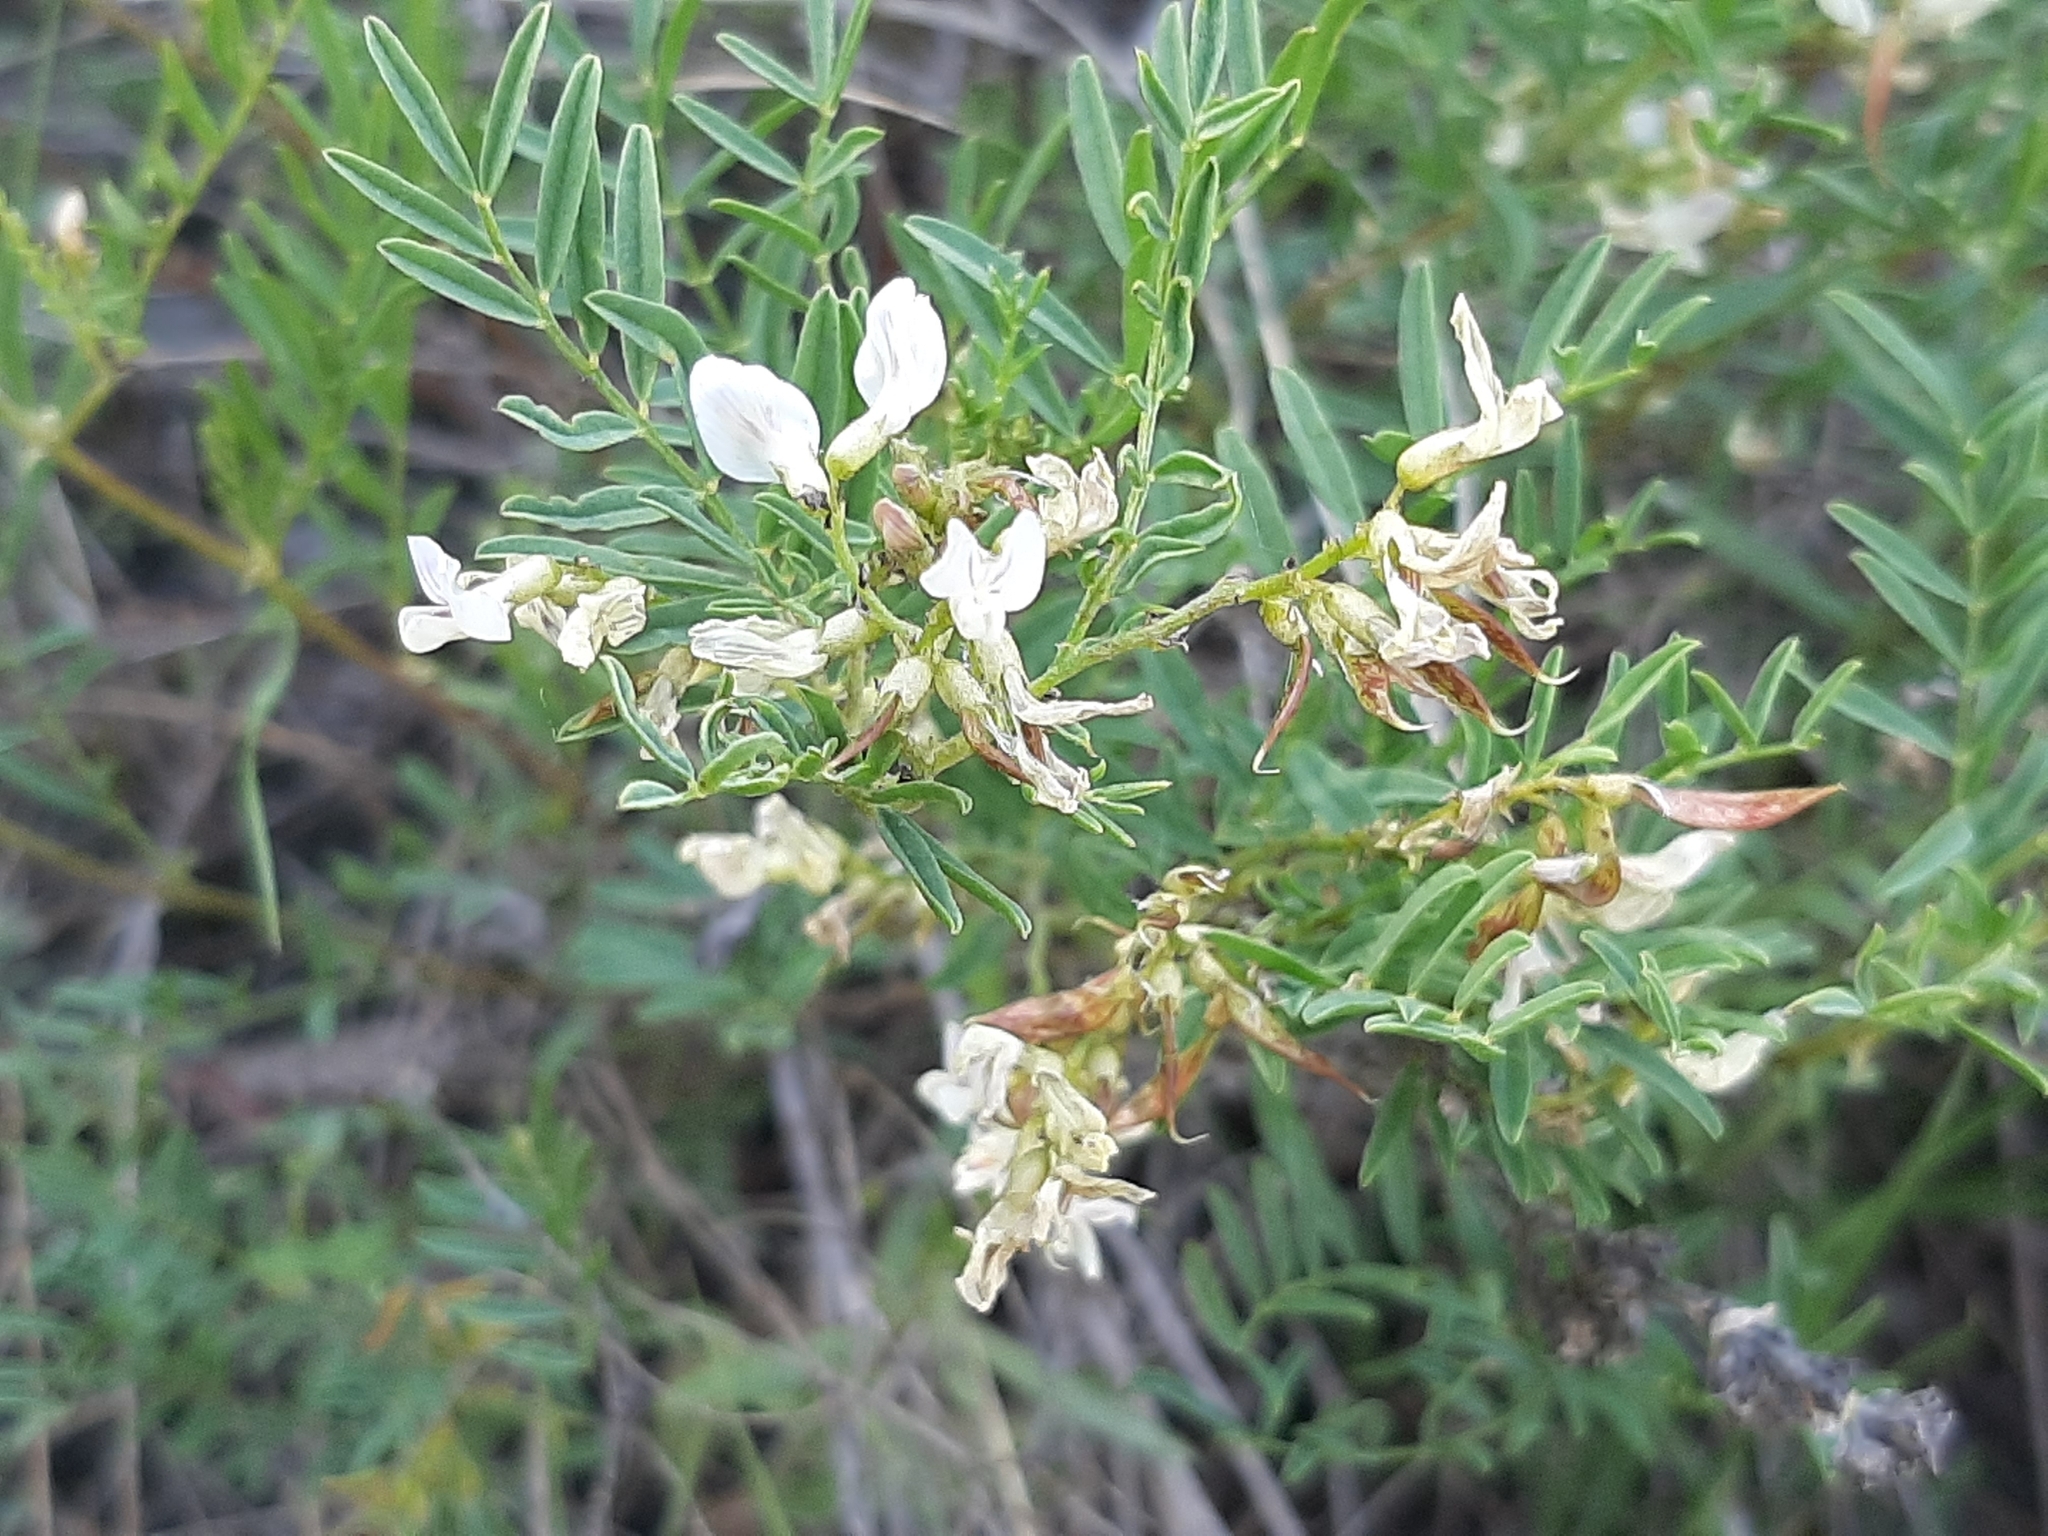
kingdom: Plantae
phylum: Tracheophyta
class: Magnoliopsida
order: Fabales
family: Fabaceae
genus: Astragalus
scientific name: Astragalus tenellus
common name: Pulse milk-vetch
